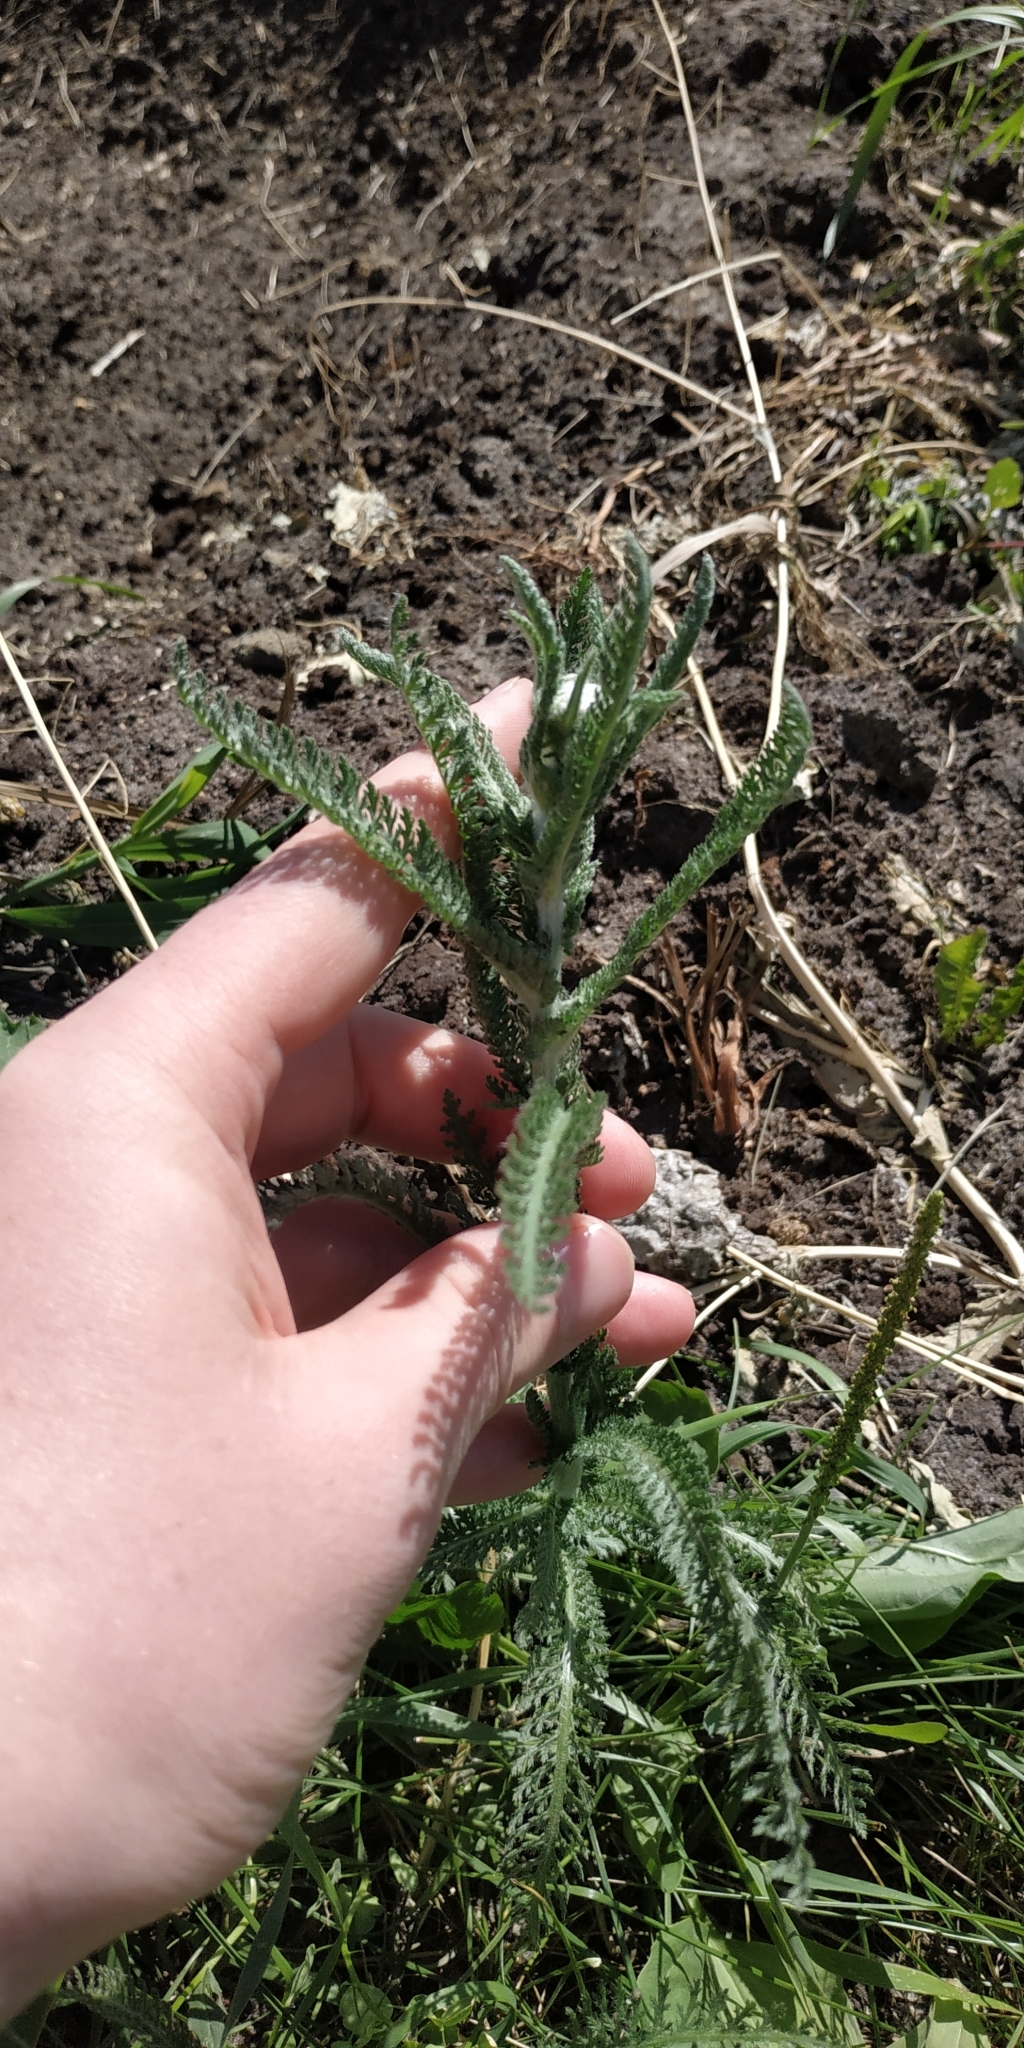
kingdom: Plantae
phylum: Tracheophyta
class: Magnoliopsida
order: Asterales
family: Asteraceae
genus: Achillea
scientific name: Achillea millefolium
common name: Yarrow
